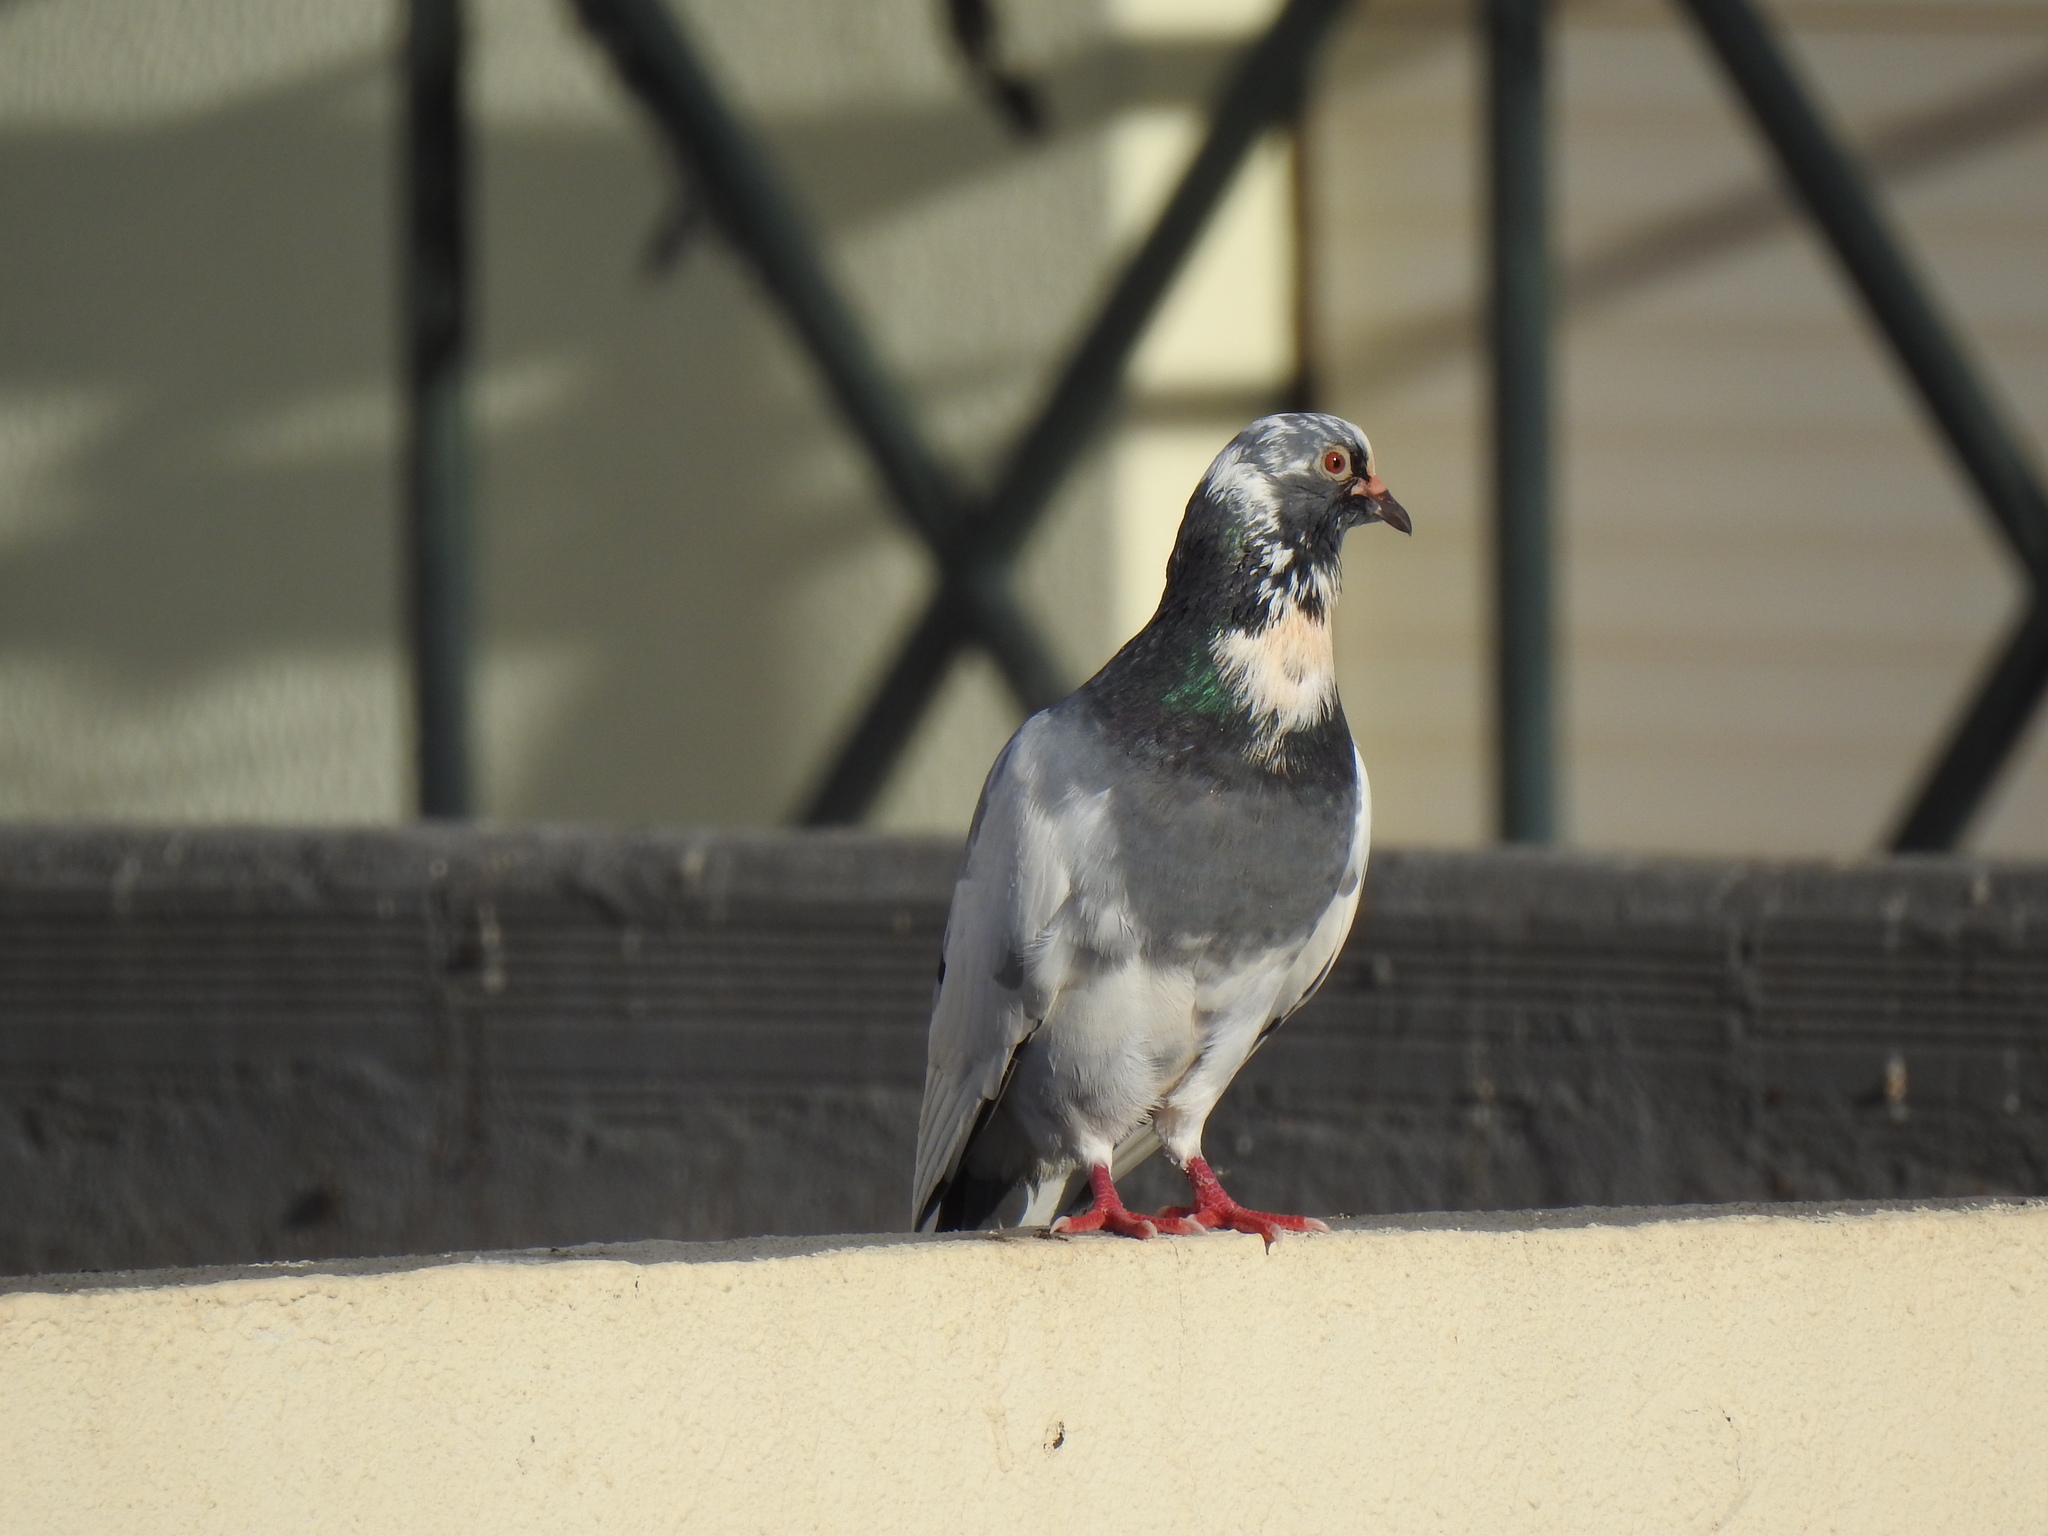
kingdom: Animalia
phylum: Chordata
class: Aves
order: Columbiformes
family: Columbidae
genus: Columba
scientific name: Columba livia
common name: Rock pigeon
